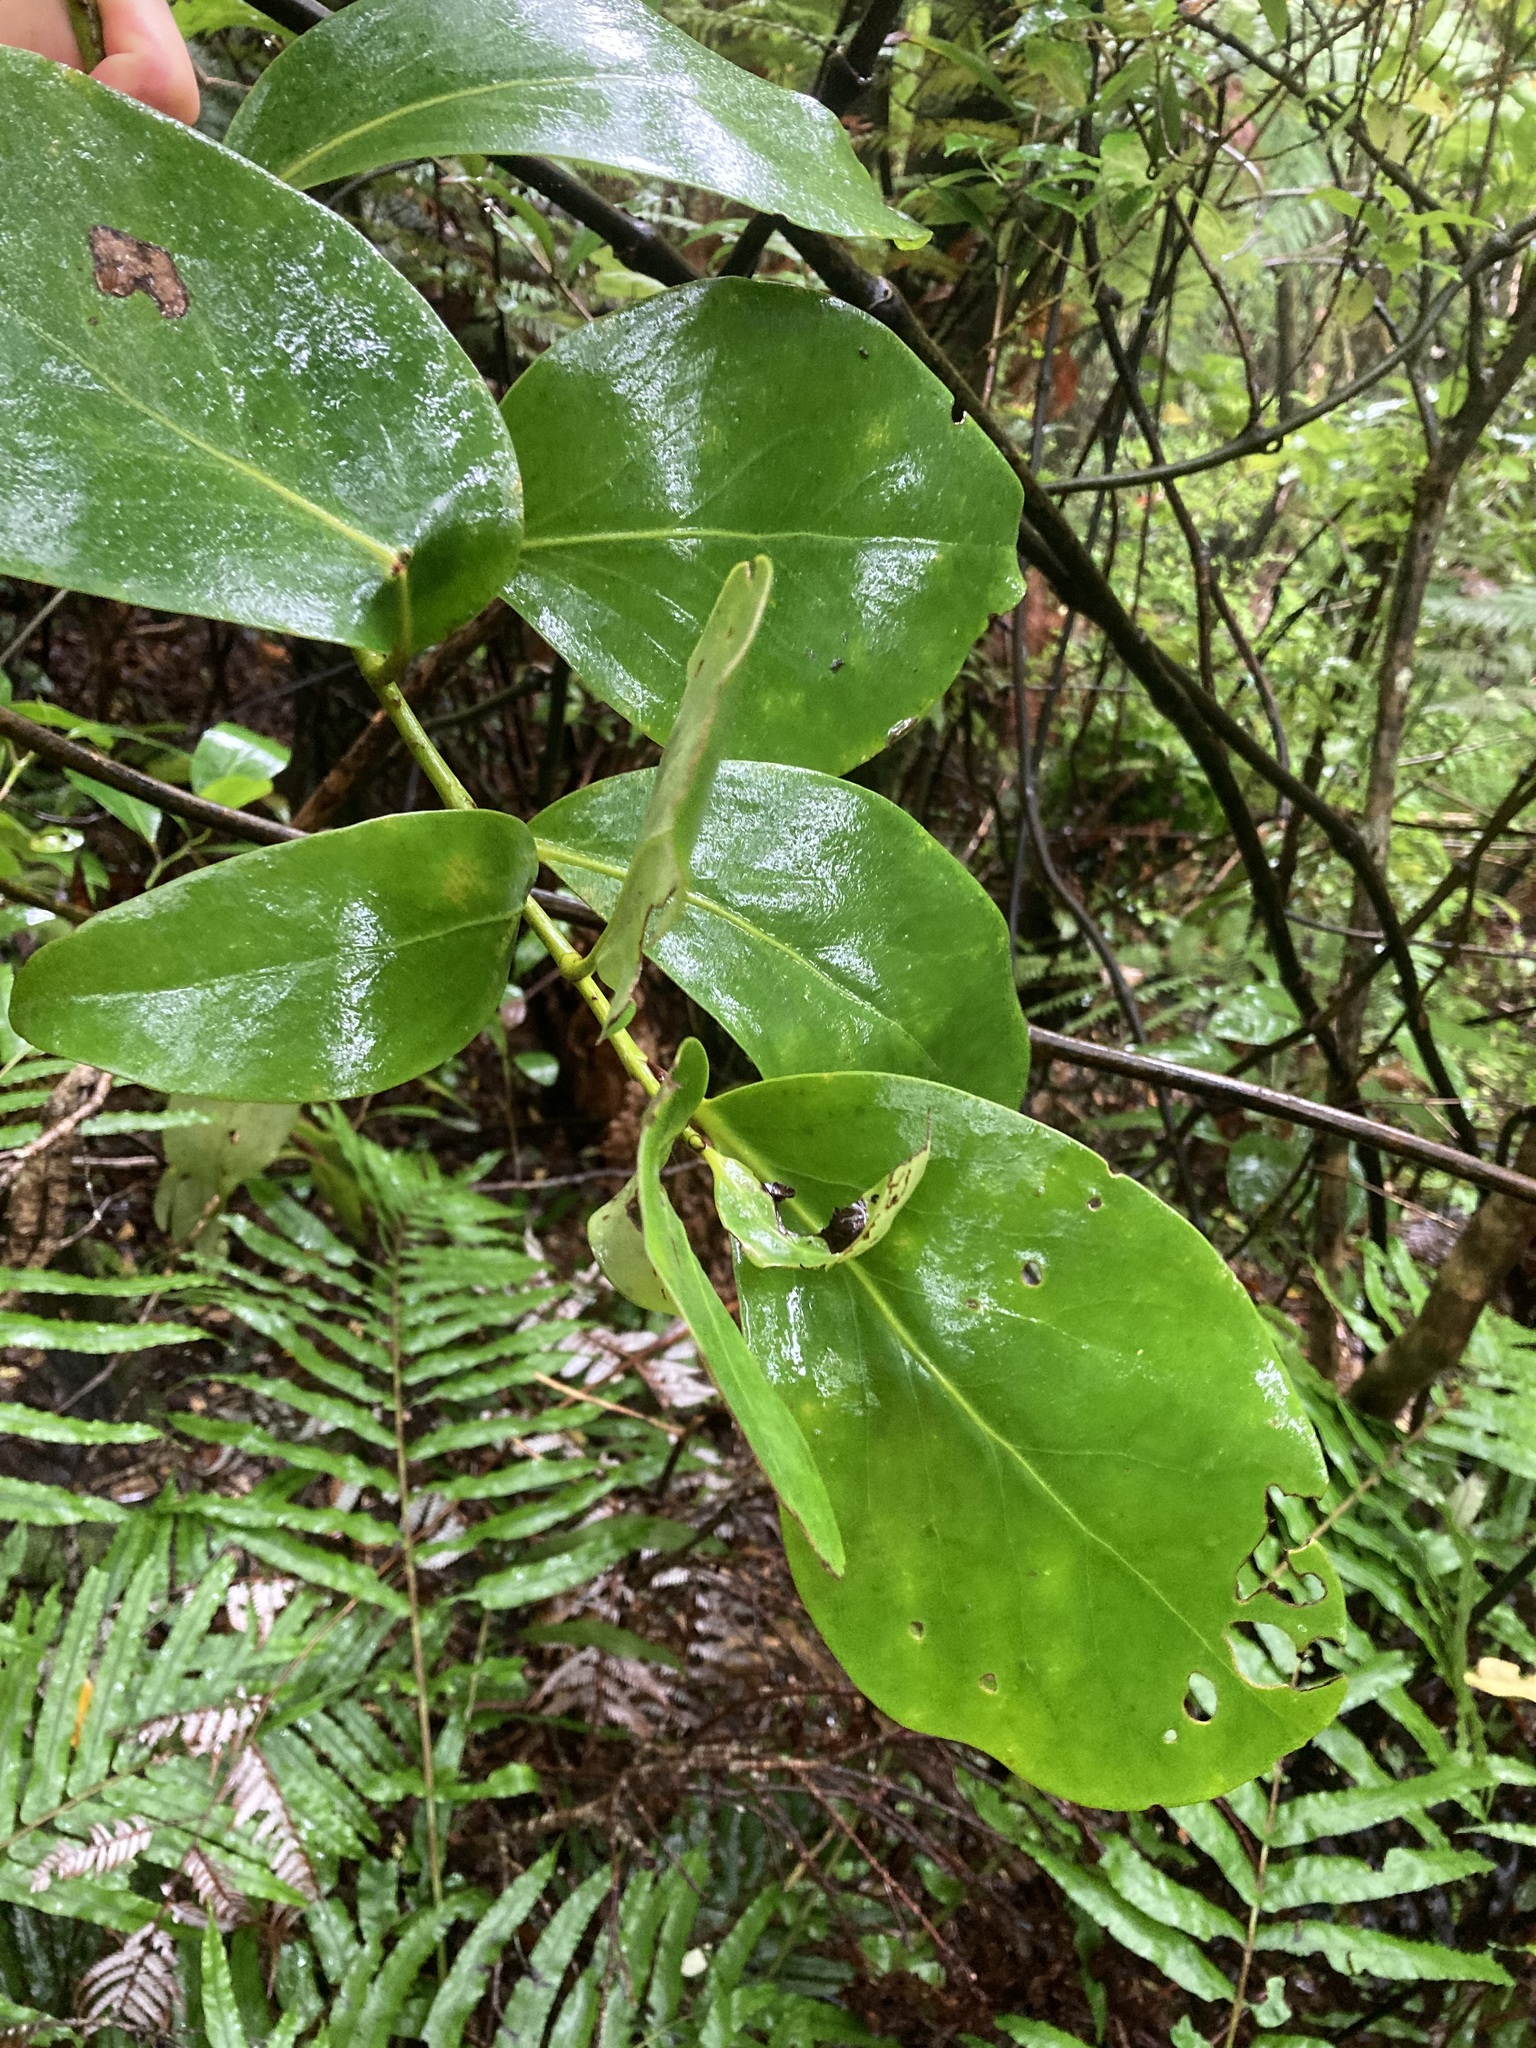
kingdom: Plantae
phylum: Tracheophyta
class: Magnoliopsida
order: Apiales
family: Griseliniaceae
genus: Griselinia
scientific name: Griselinia lucida
